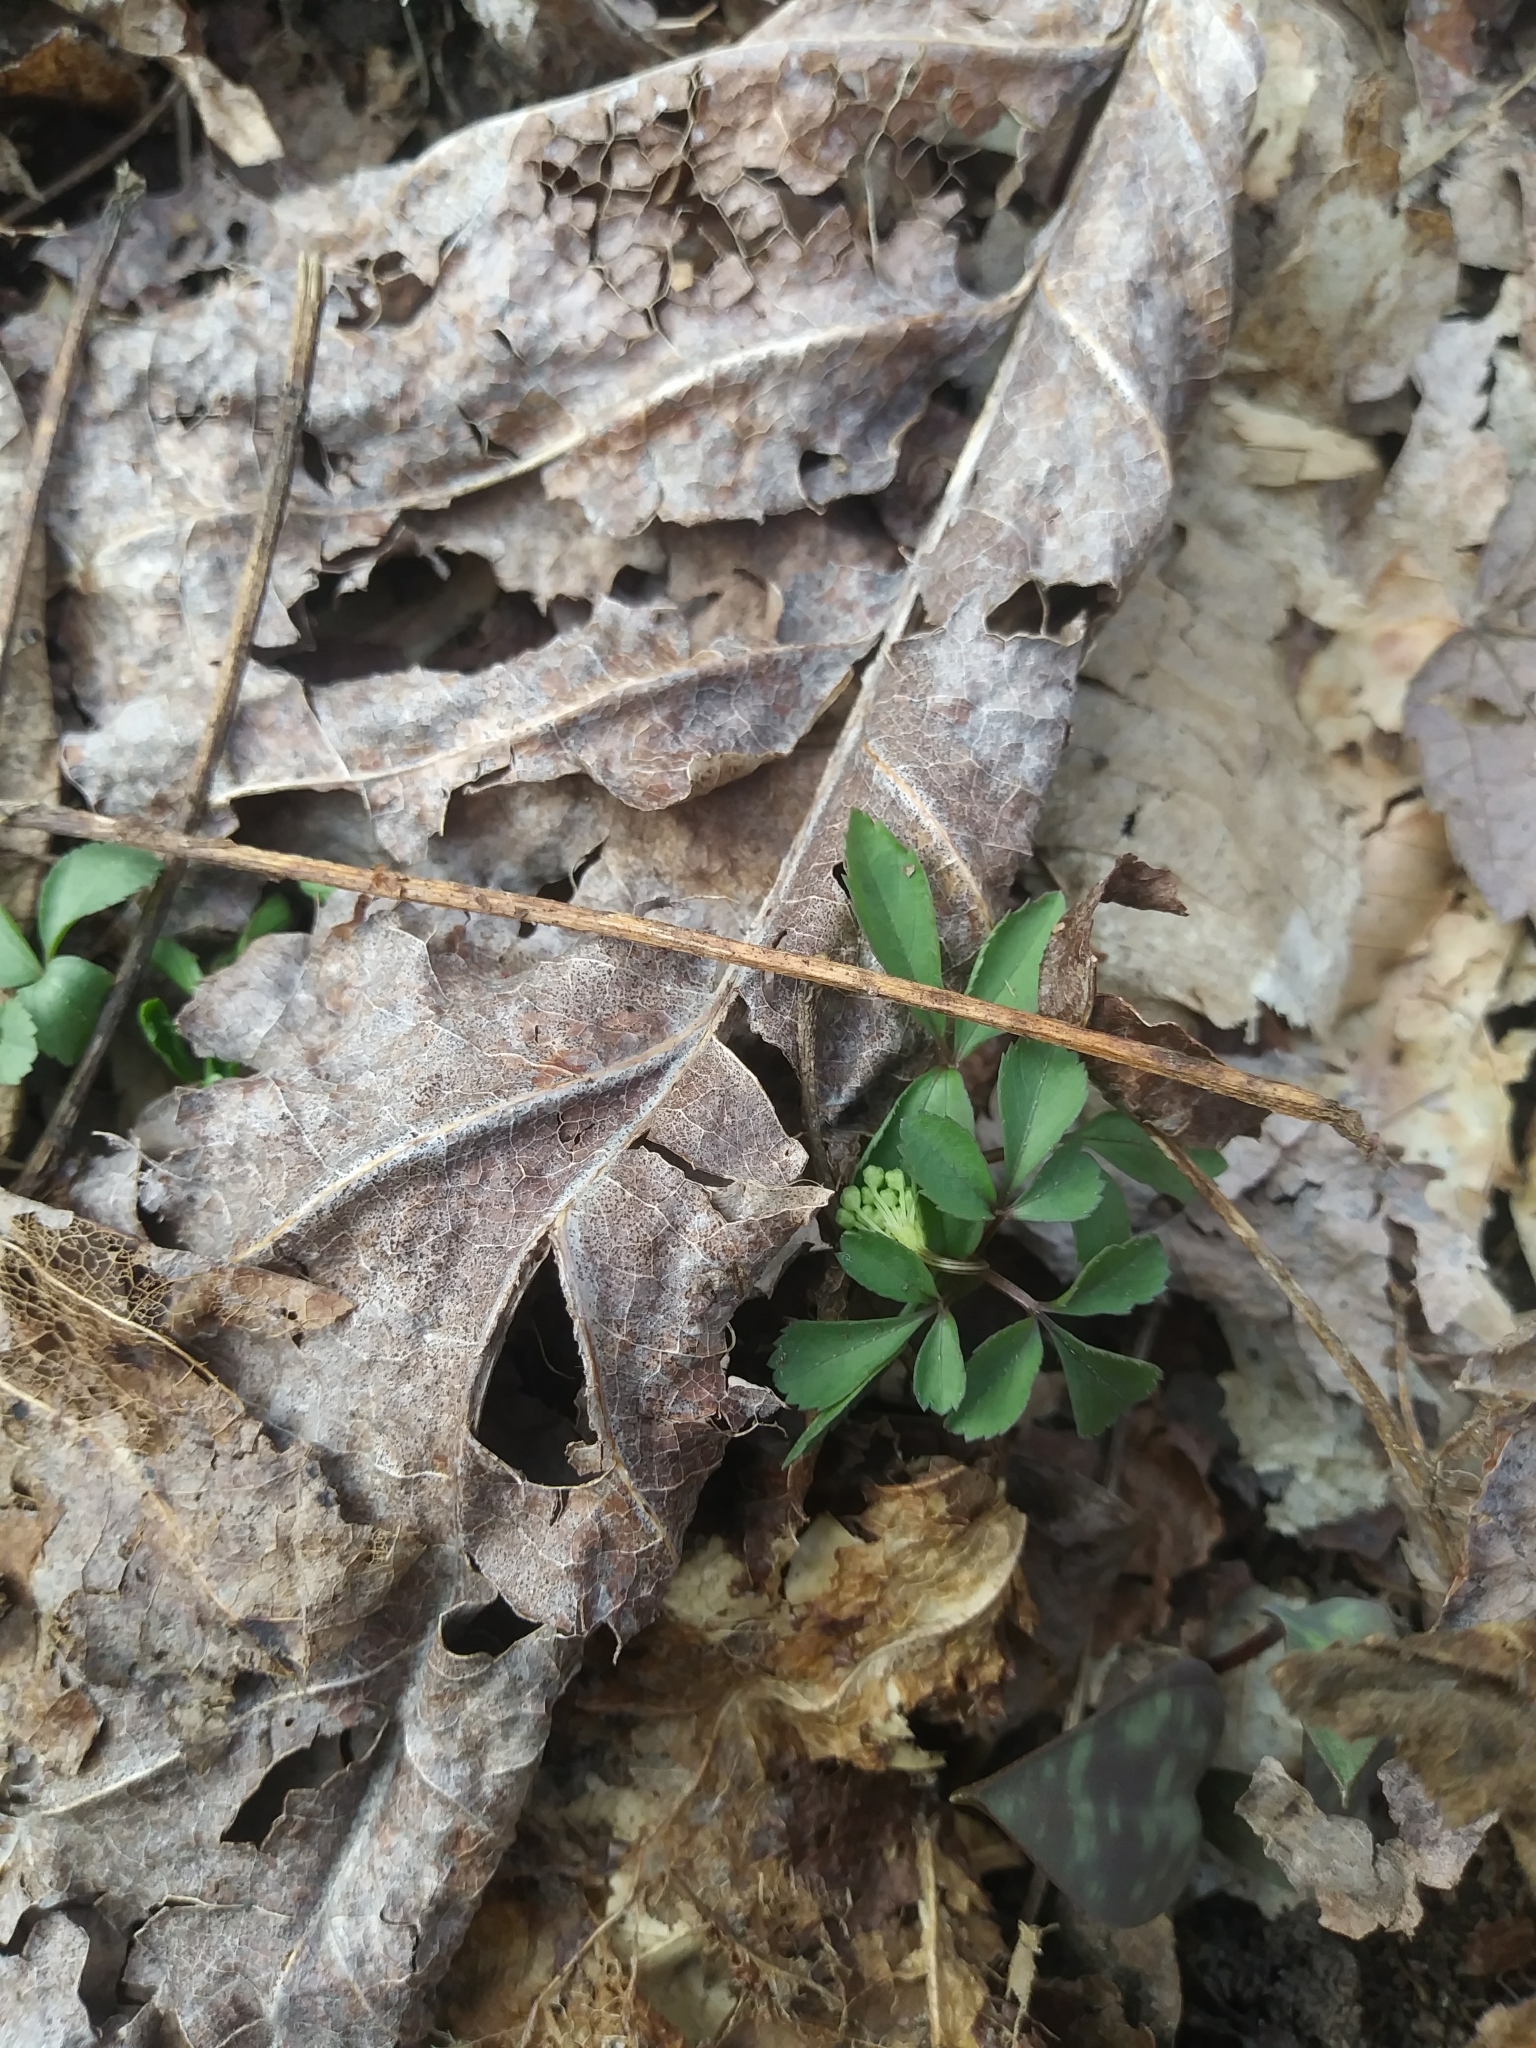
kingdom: Plantae
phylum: Tracheophyta
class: Magnoliopsida
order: Apiales
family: Araliaceae
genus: Panax
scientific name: Panax trifolius
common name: Dwarf ginseng
